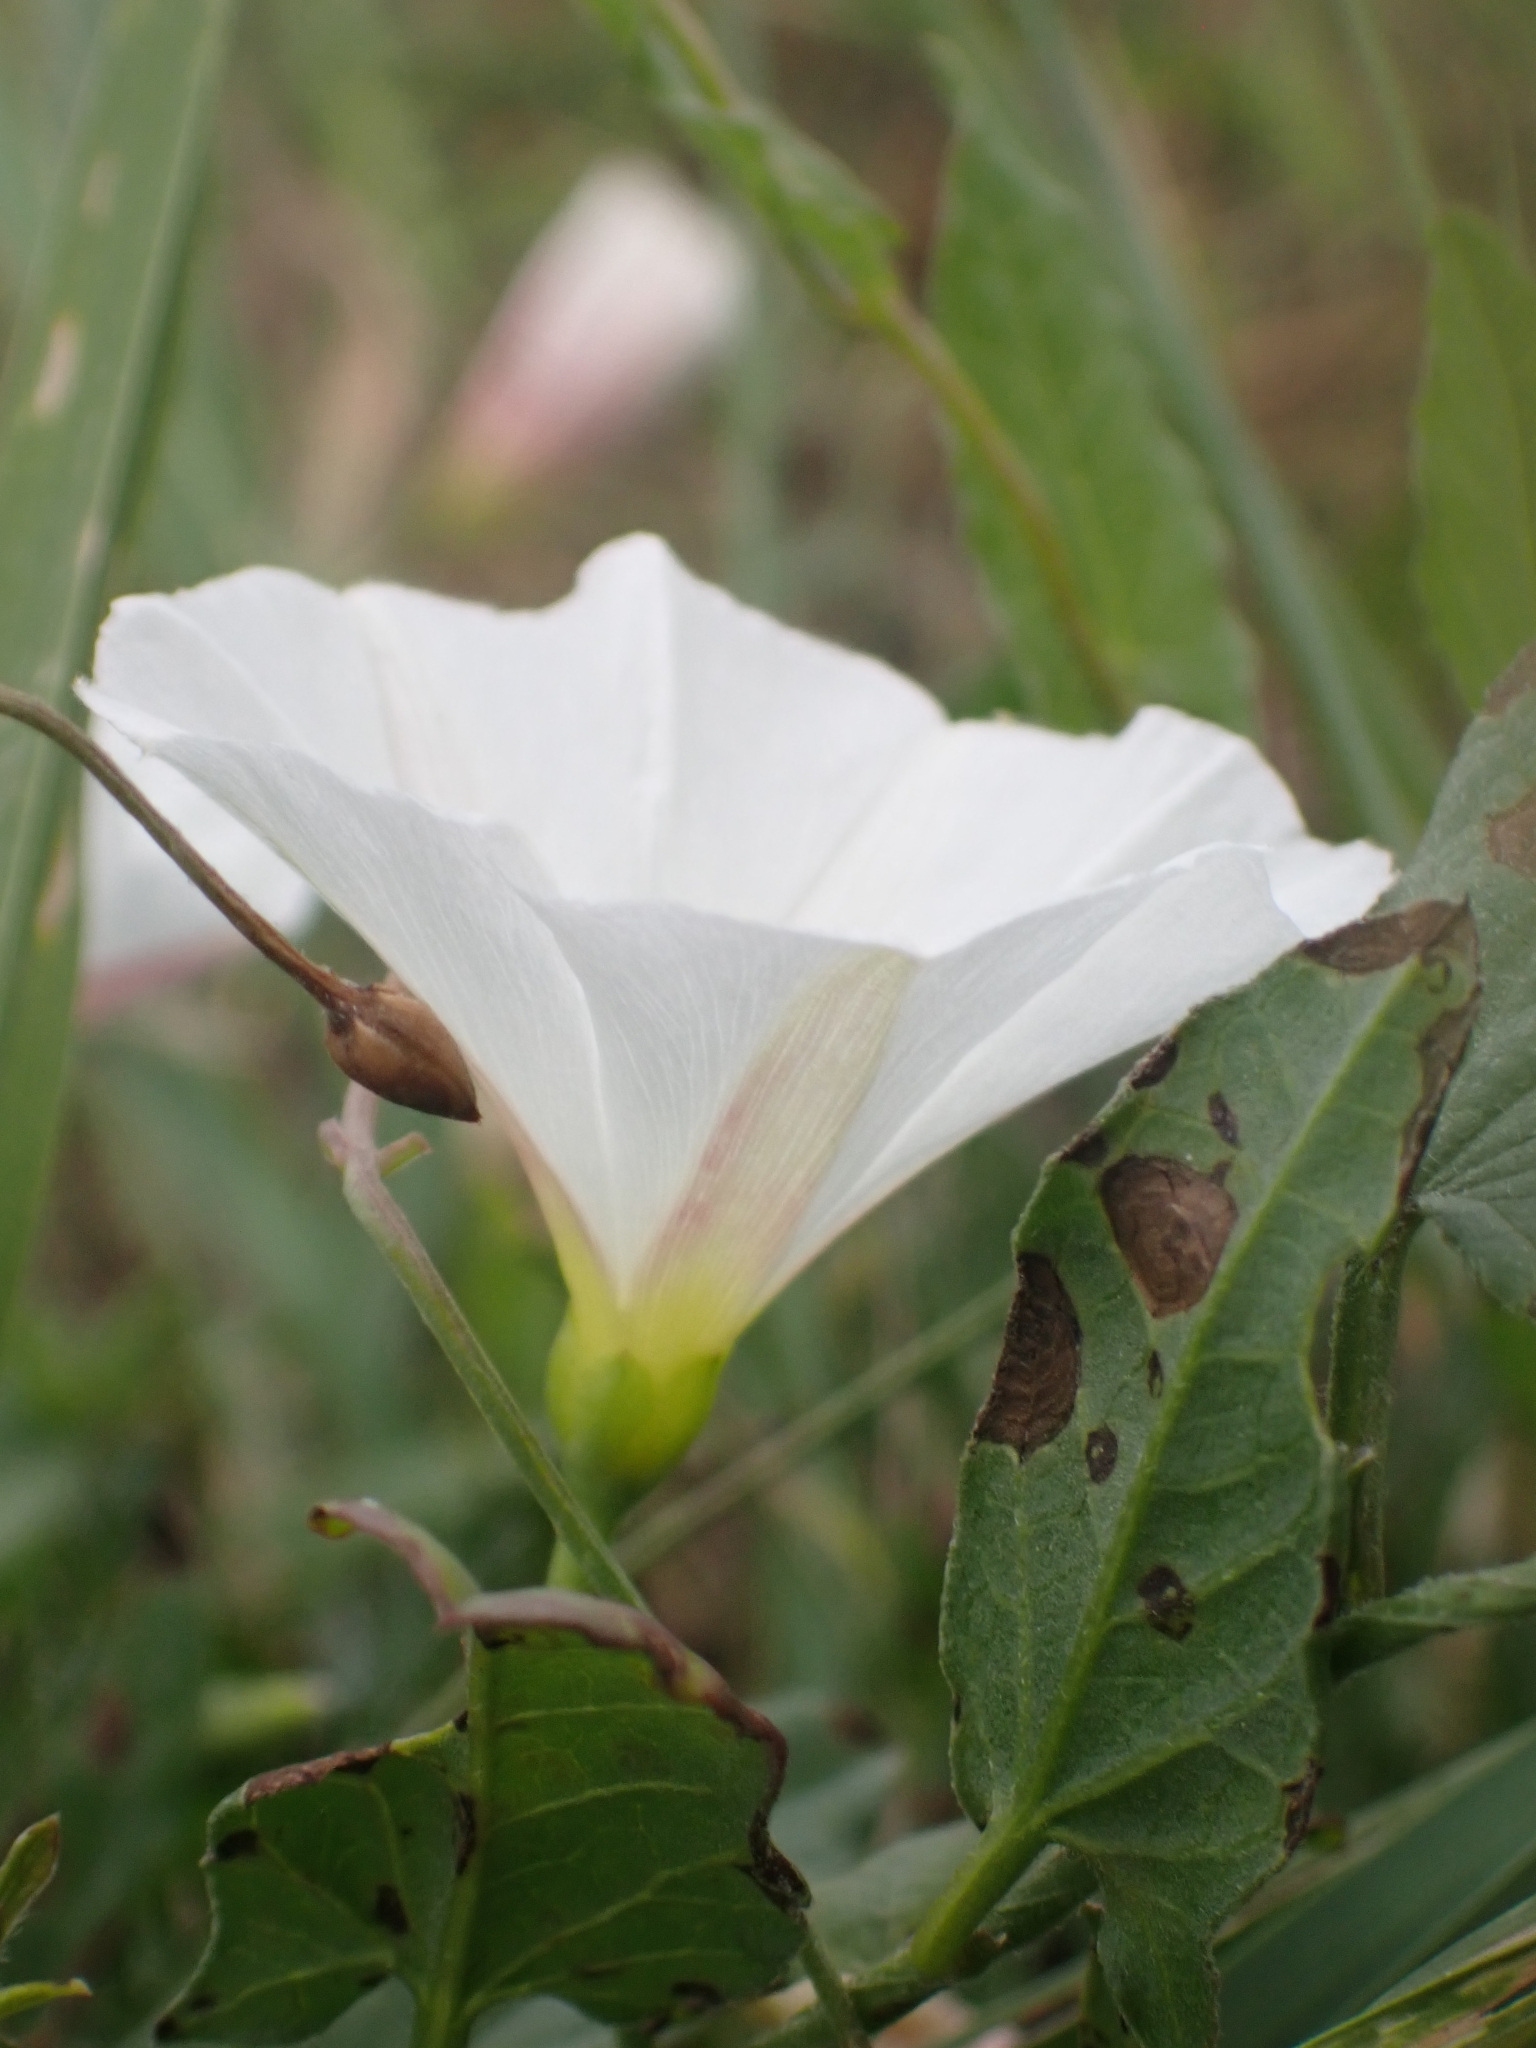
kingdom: Plantae
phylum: Tracheophyta
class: Magnoliopsida
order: Solanales
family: Convolvulaceae
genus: Convolvulus
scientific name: Convolvulus arvensis
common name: Field bindweed
